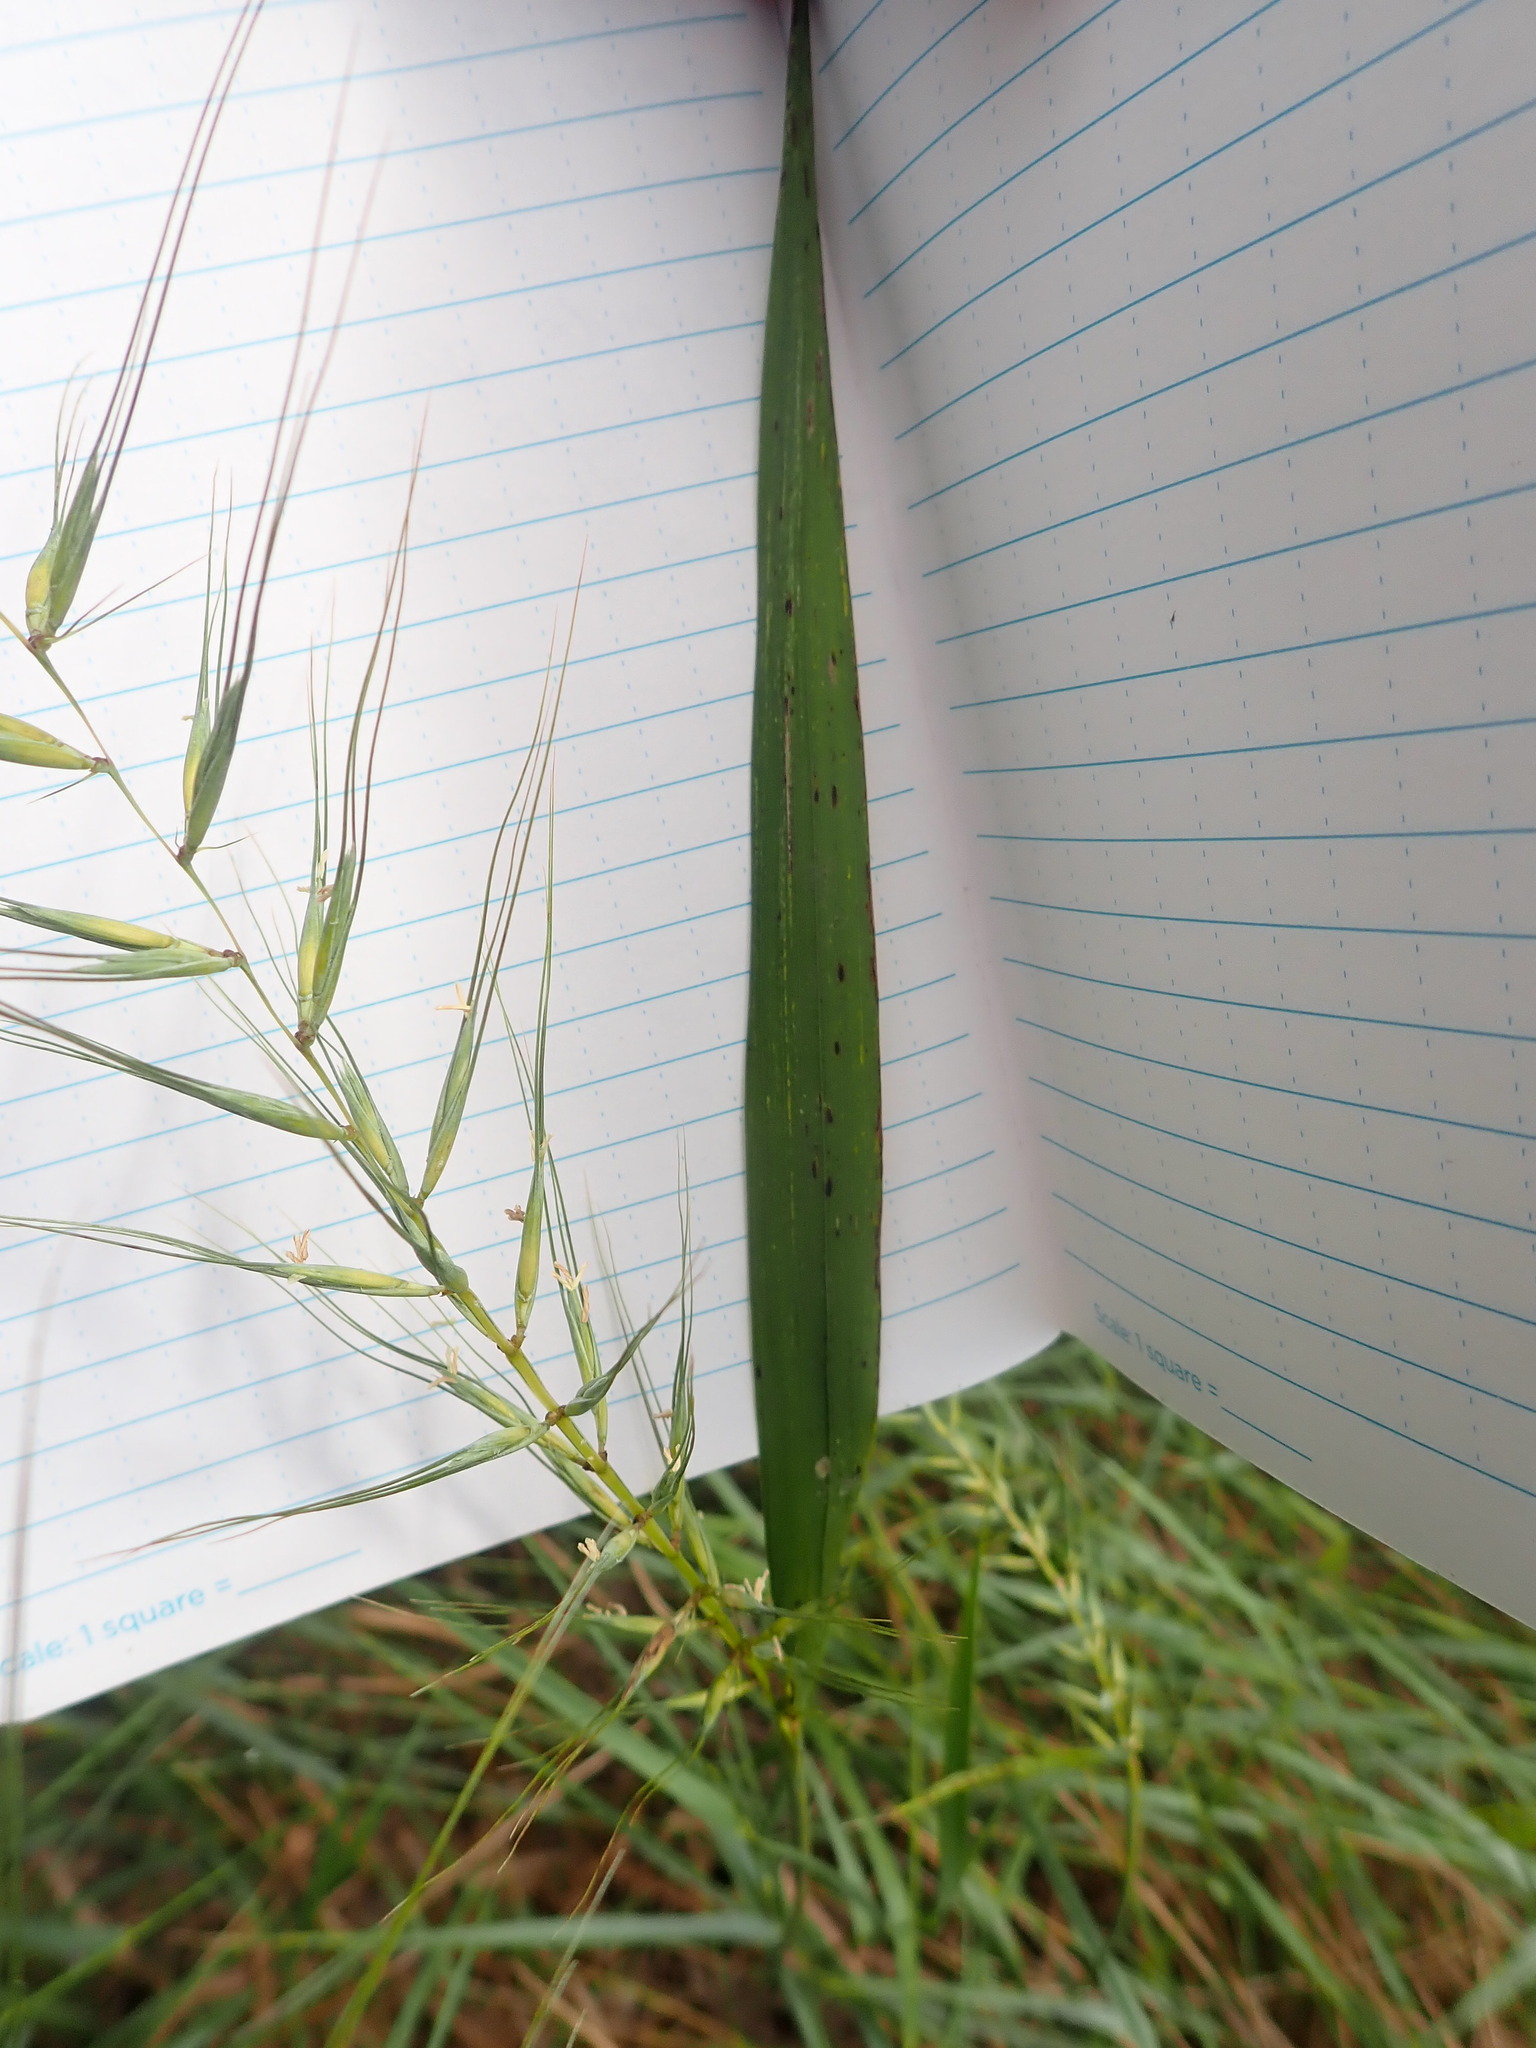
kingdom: Plantae
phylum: Tracheophyta
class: Liliopsida
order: Poales
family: Poaceae
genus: Elymus
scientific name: Elymus hystrix
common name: Bottlebrush grass
